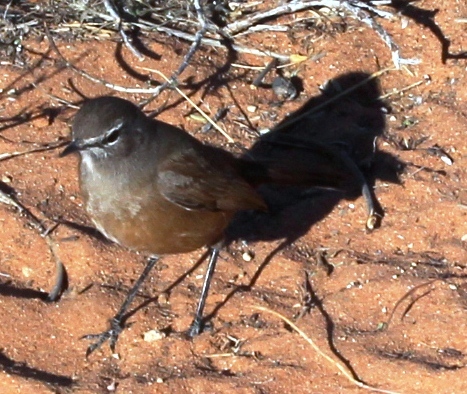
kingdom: Animalia
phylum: Chordata
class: Aves
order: Passeriformes
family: Muscicapidae
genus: Erythropygia
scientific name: Erythropygia coryphoeus
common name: Karoo scrub robin
